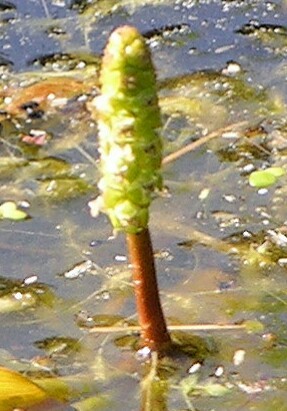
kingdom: Plantae
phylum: Tracheophyta
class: Liliopsida
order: Alismatales
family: Potamogetonaceae
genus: Potamogeton
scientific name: Potamogeton natans
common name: Broad-leaved pondweed
